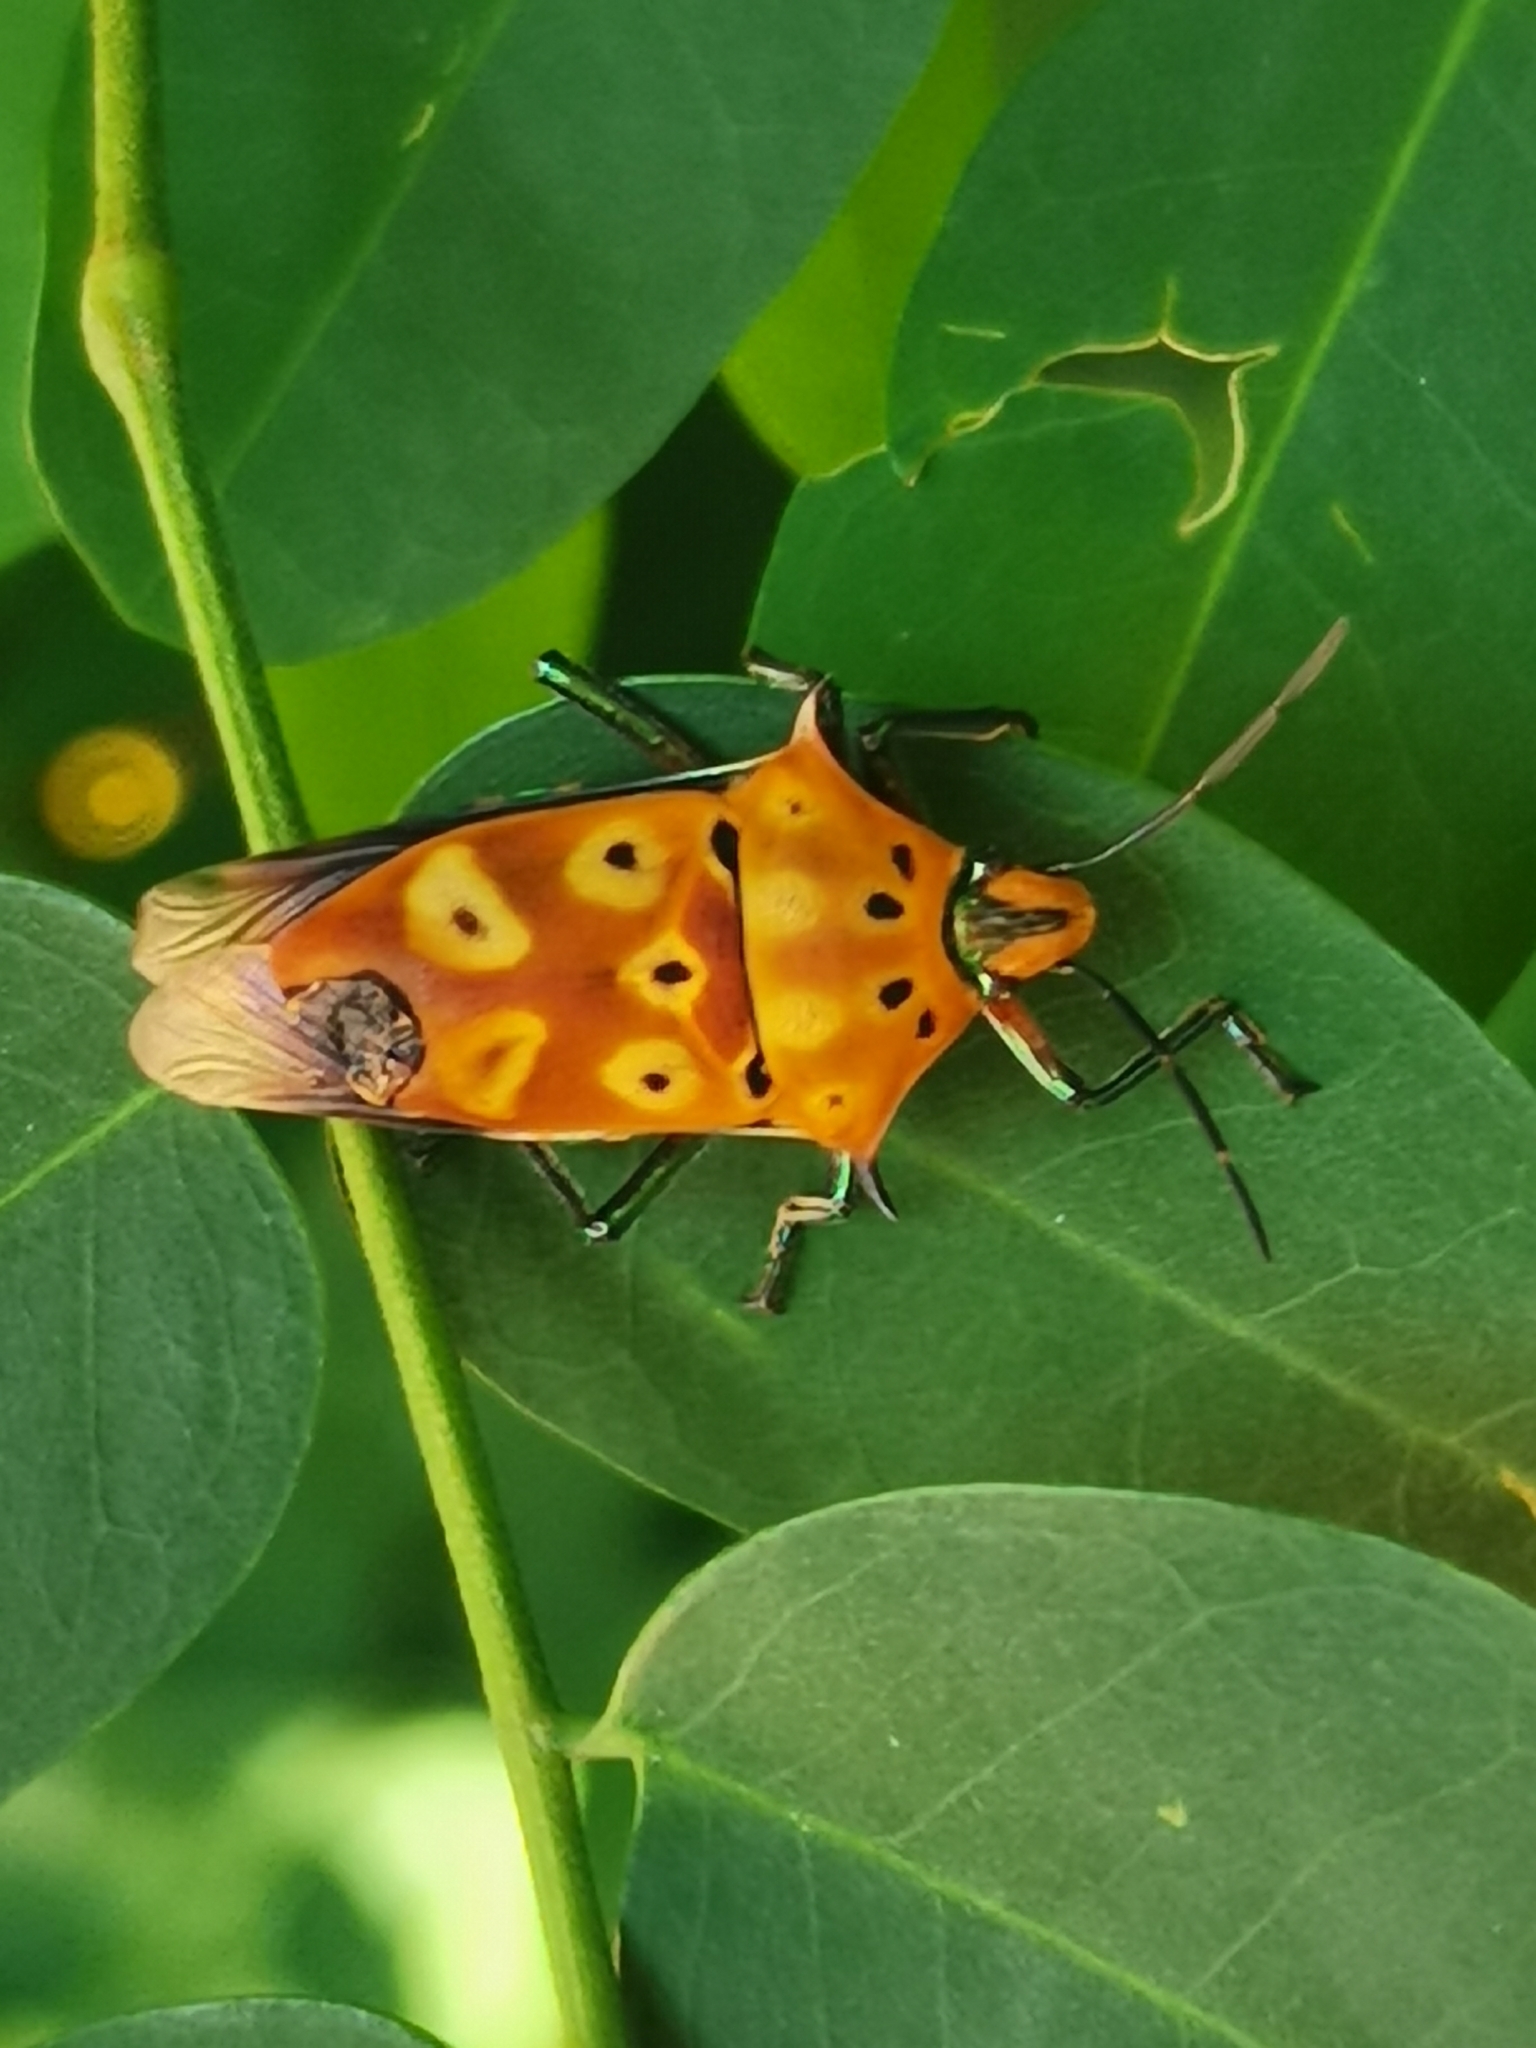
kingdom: Animalia
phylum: Arthropoda
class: Insecta
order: Hemiptera
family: Scutelleridae
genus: Cantao
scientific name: Cantao ocellatus
